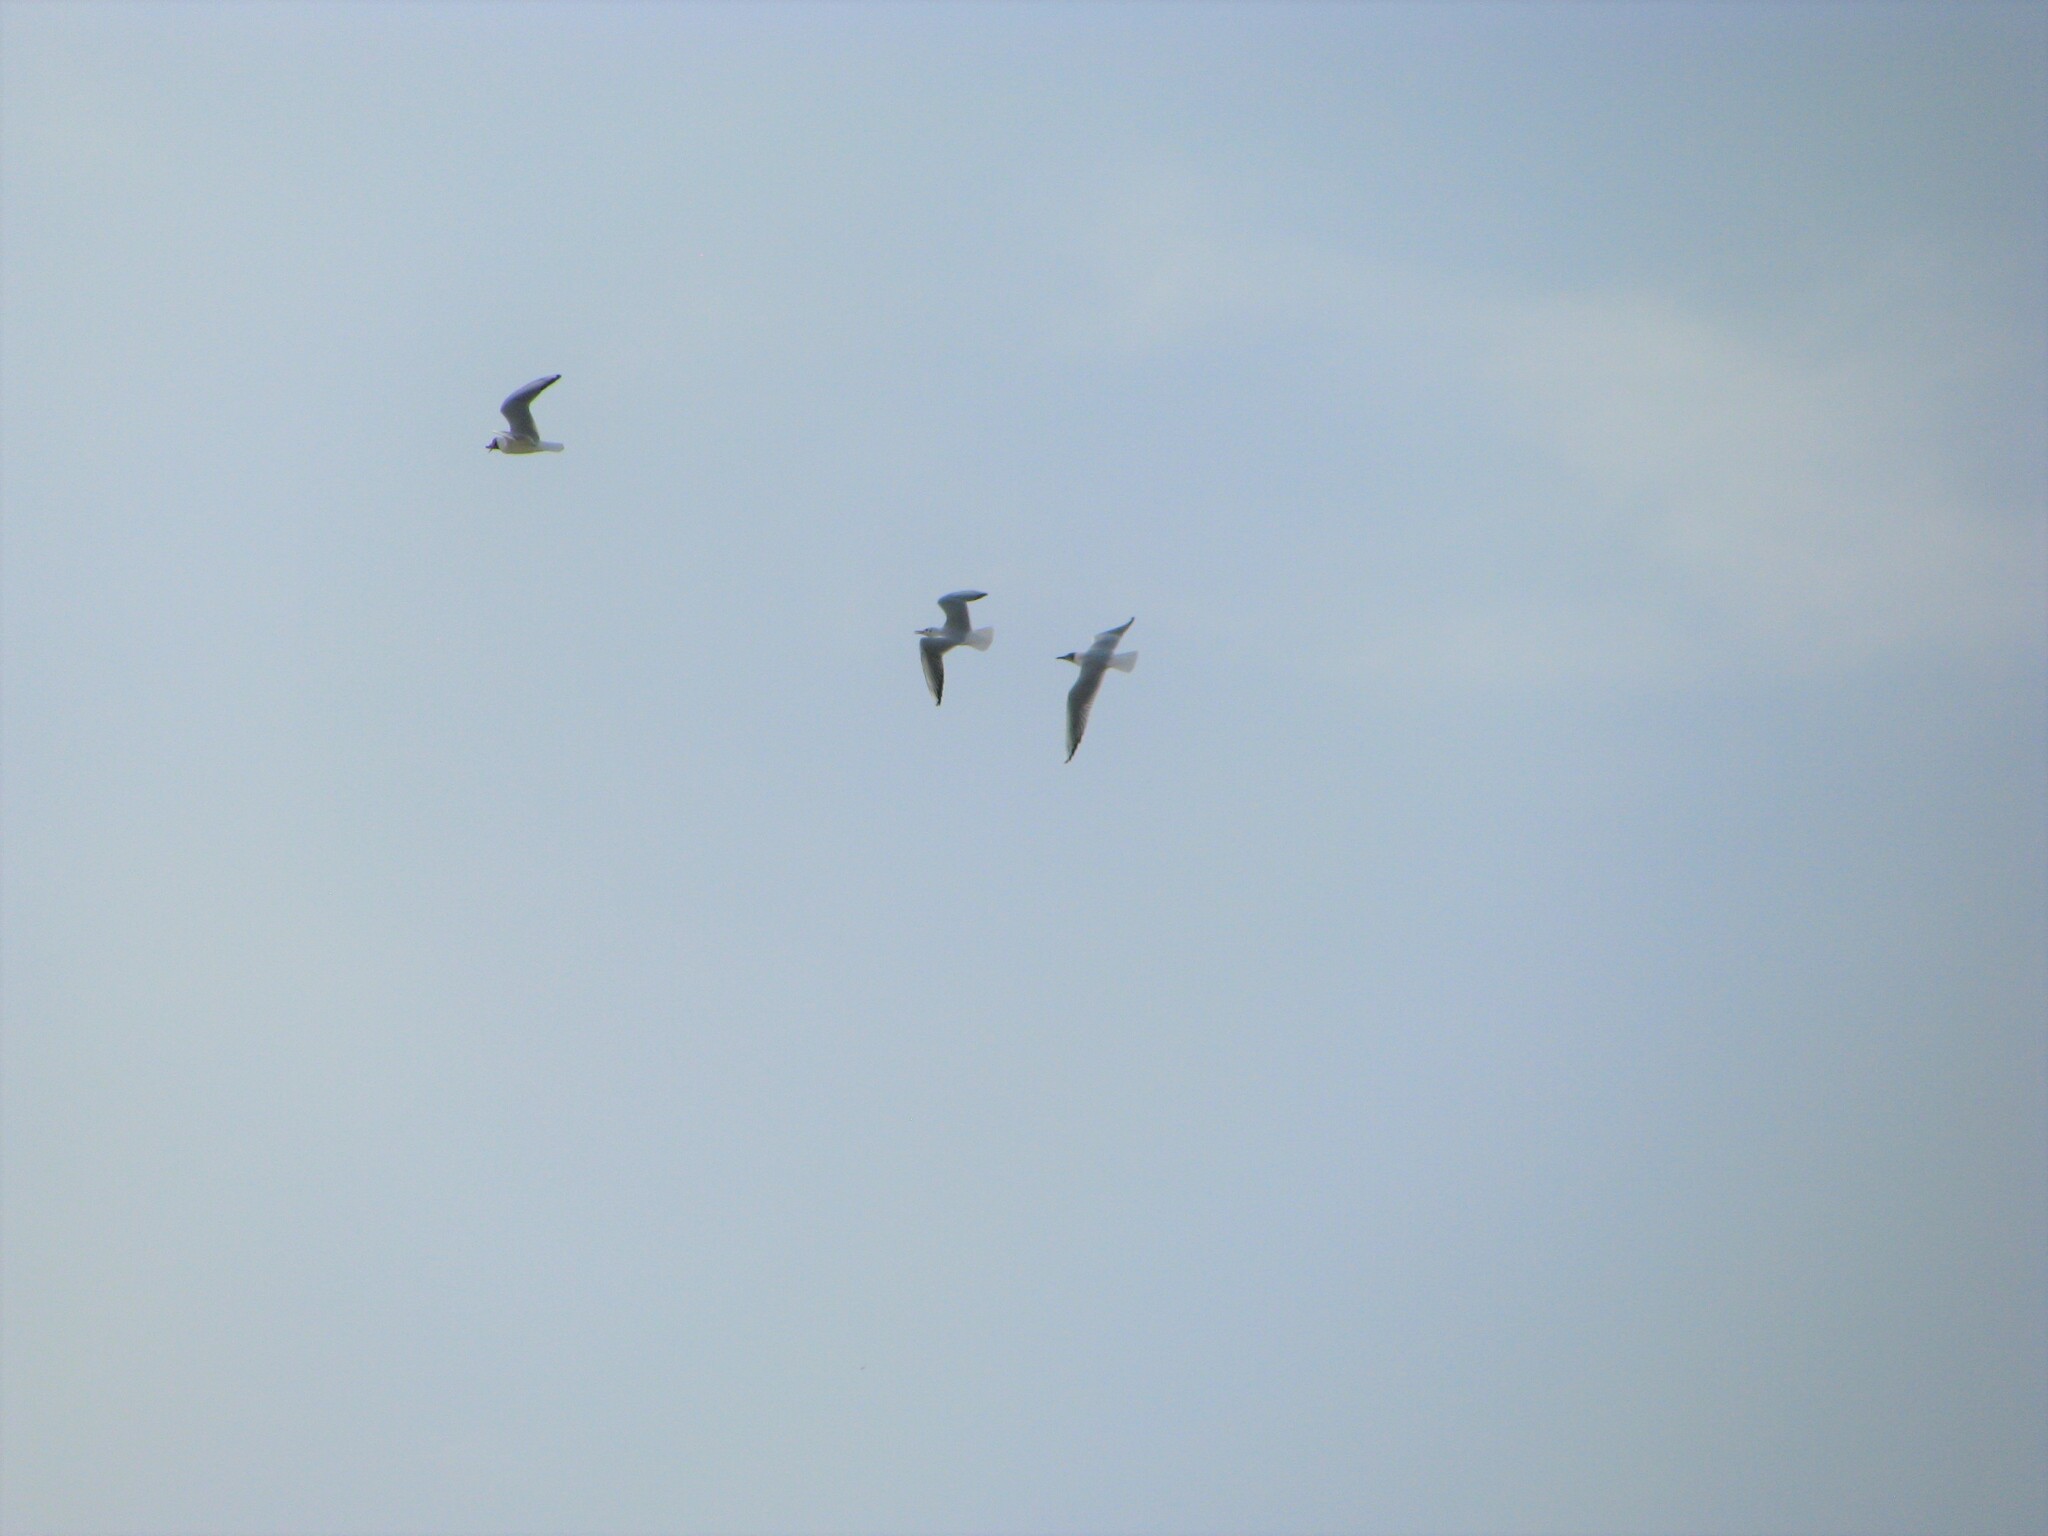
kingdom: Animalia
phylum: Chordata
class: Aves
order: Charadriiformes
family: Laridae
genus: Chroicocephalus
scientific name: Chroicocephalus ridibundus
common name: Black-headed gull
